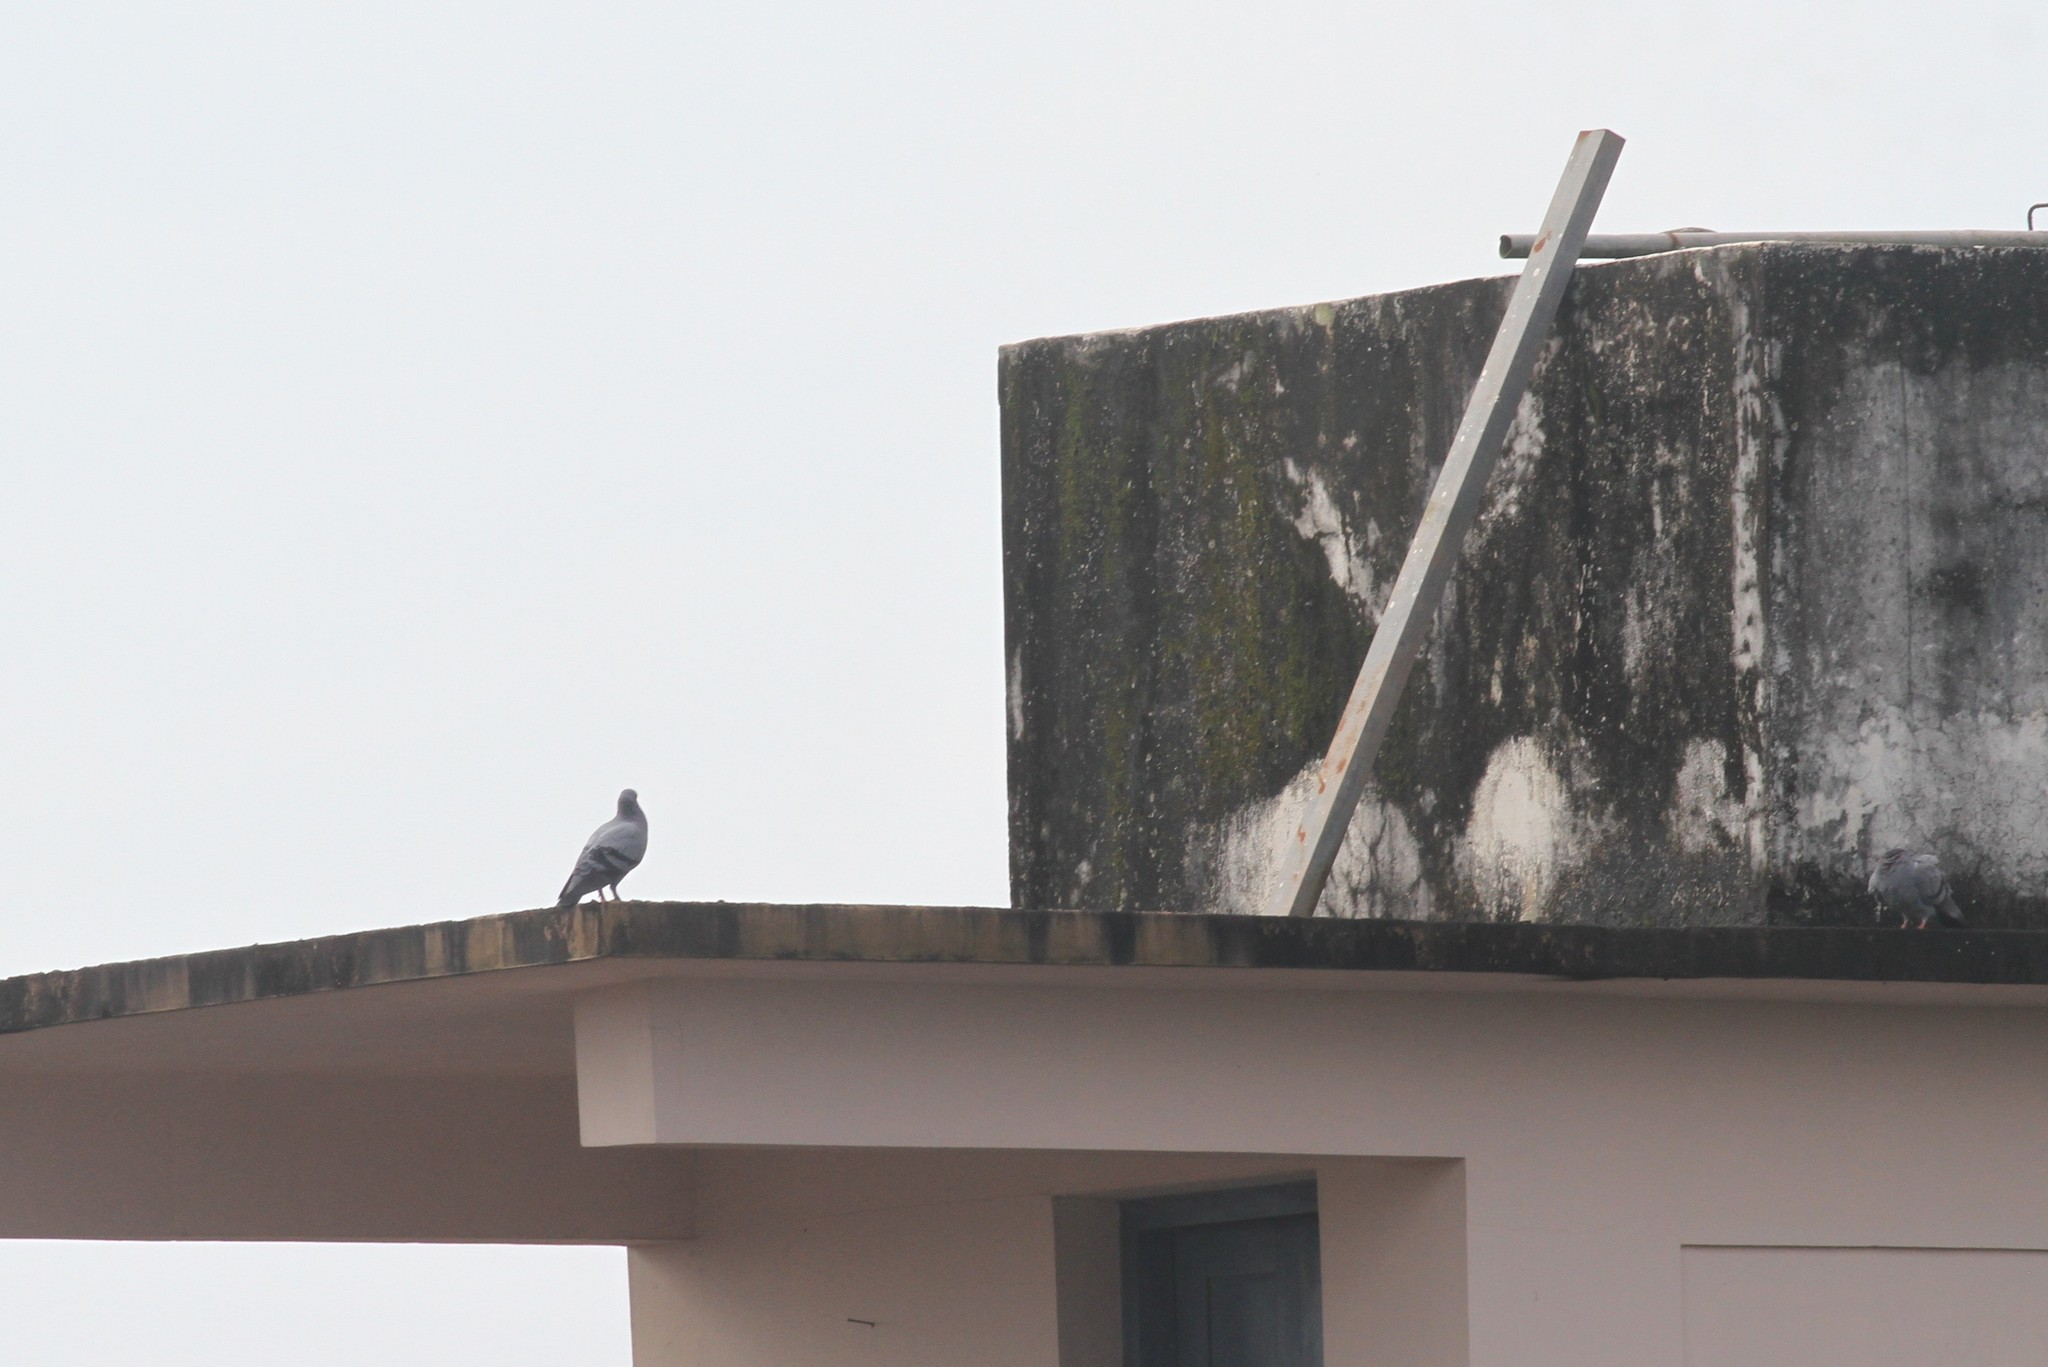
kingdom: Animalia
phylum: Chordata
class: Aves
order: Columbiformes
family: Columbidae
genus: Columba
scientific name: Columba livia
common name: Rock pigeon
